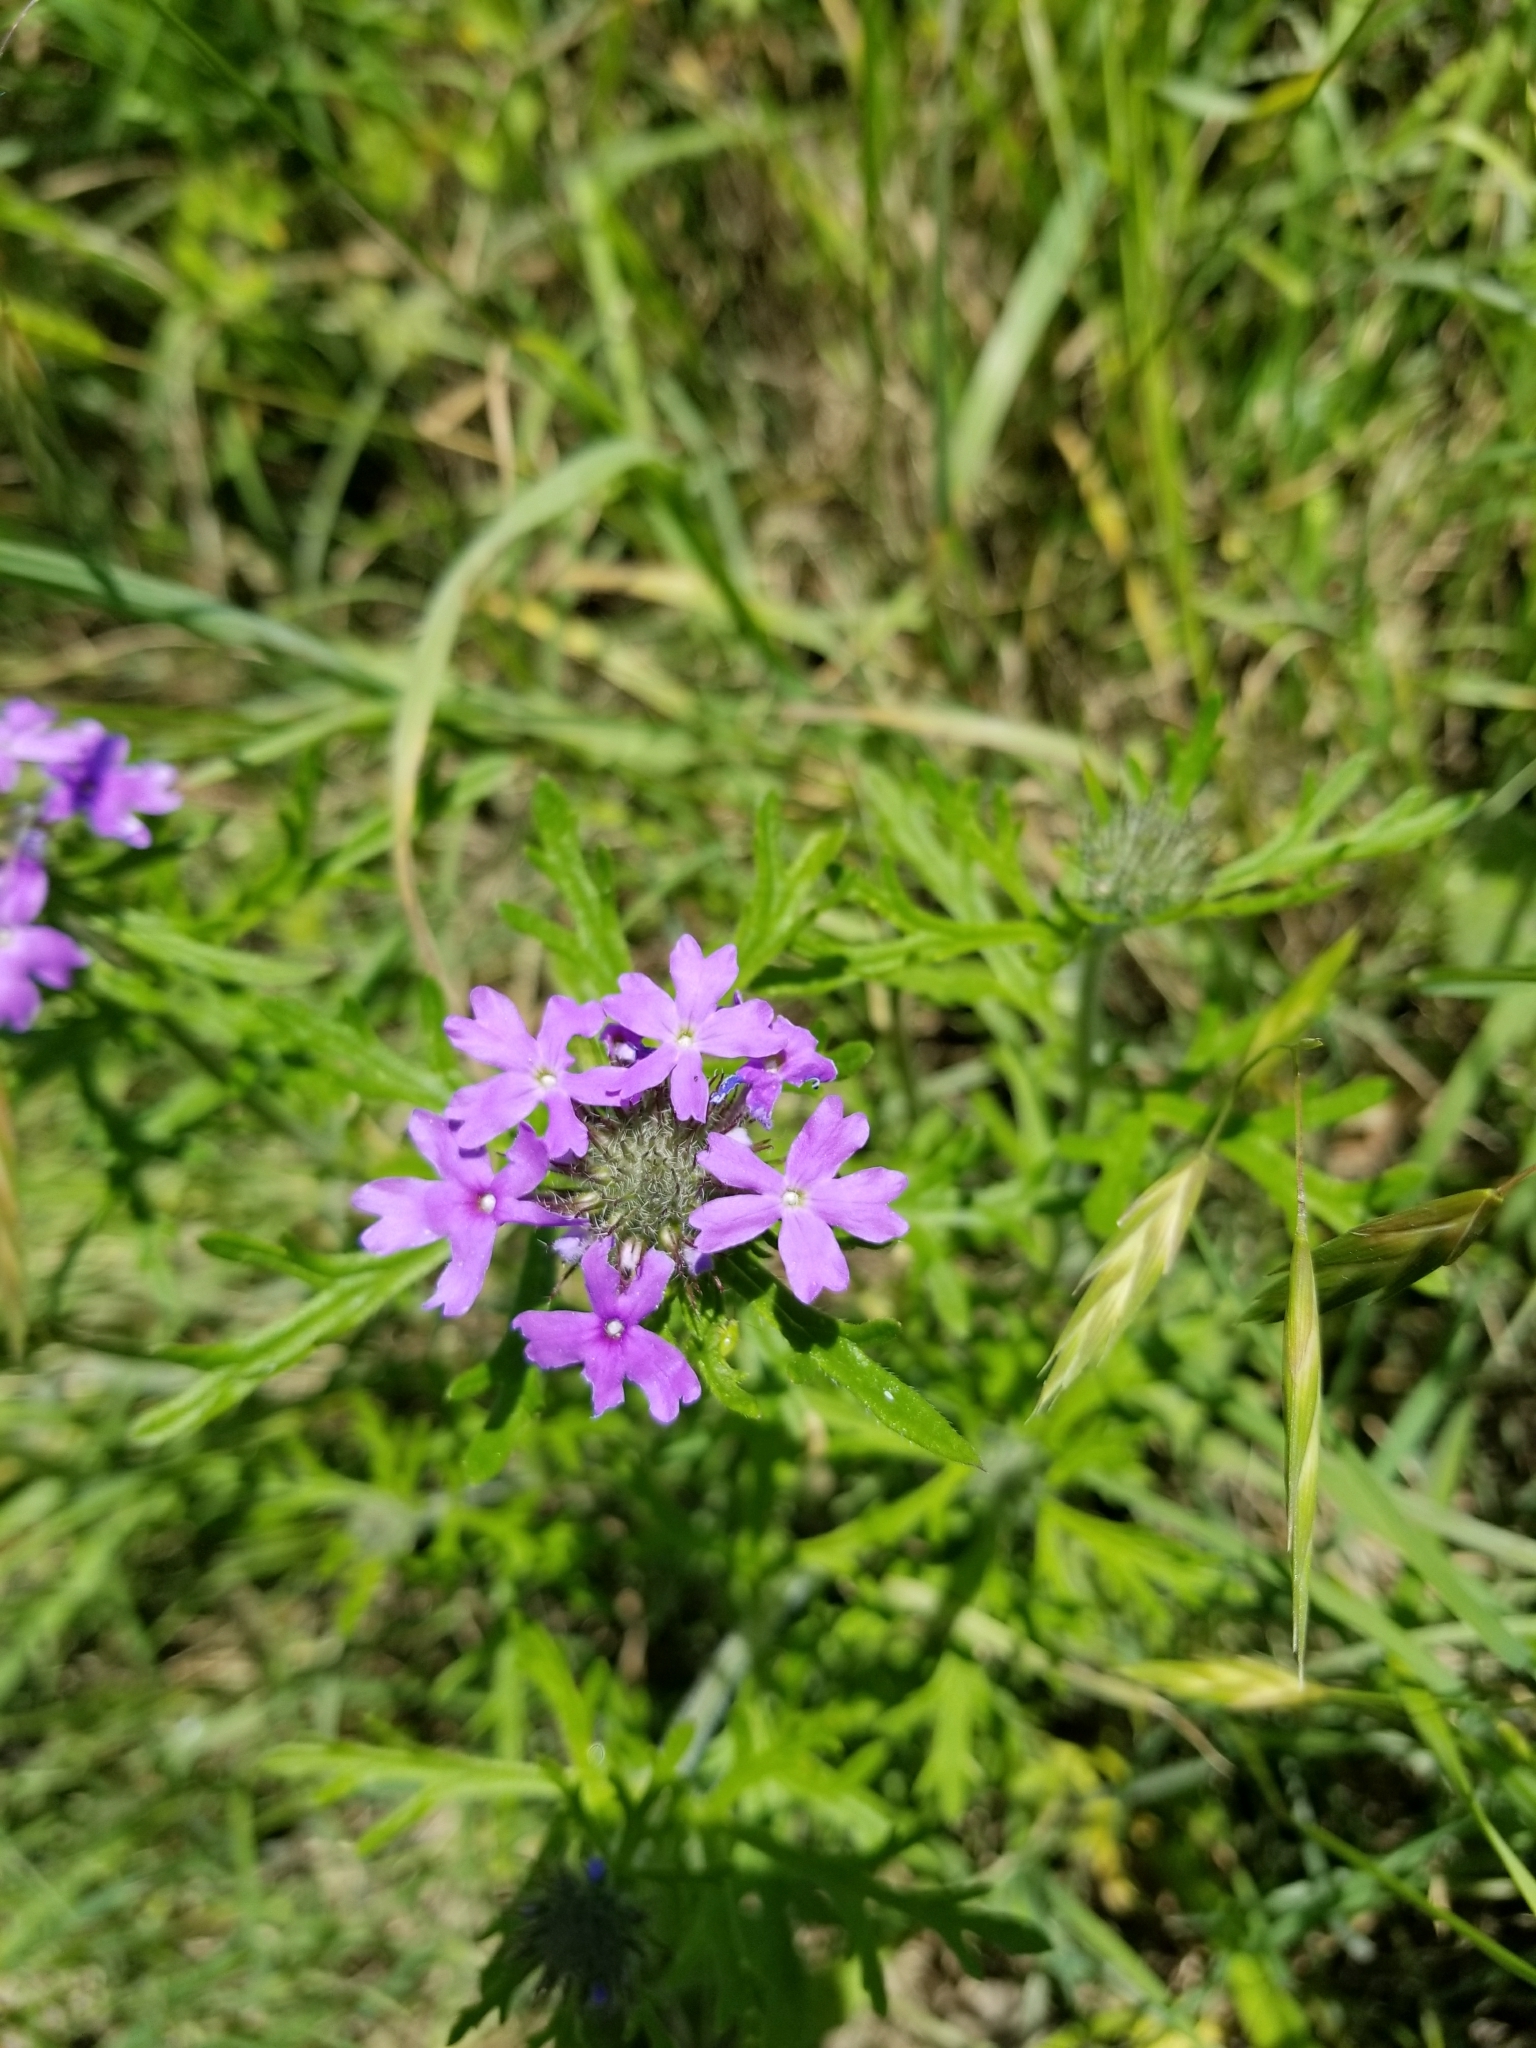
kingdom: Plantae
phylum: Tracheophyta
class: Magnoliopsida
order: Lamiales
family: Verbenaceae
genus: Verbena
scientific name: Verbena bipinnatifida
